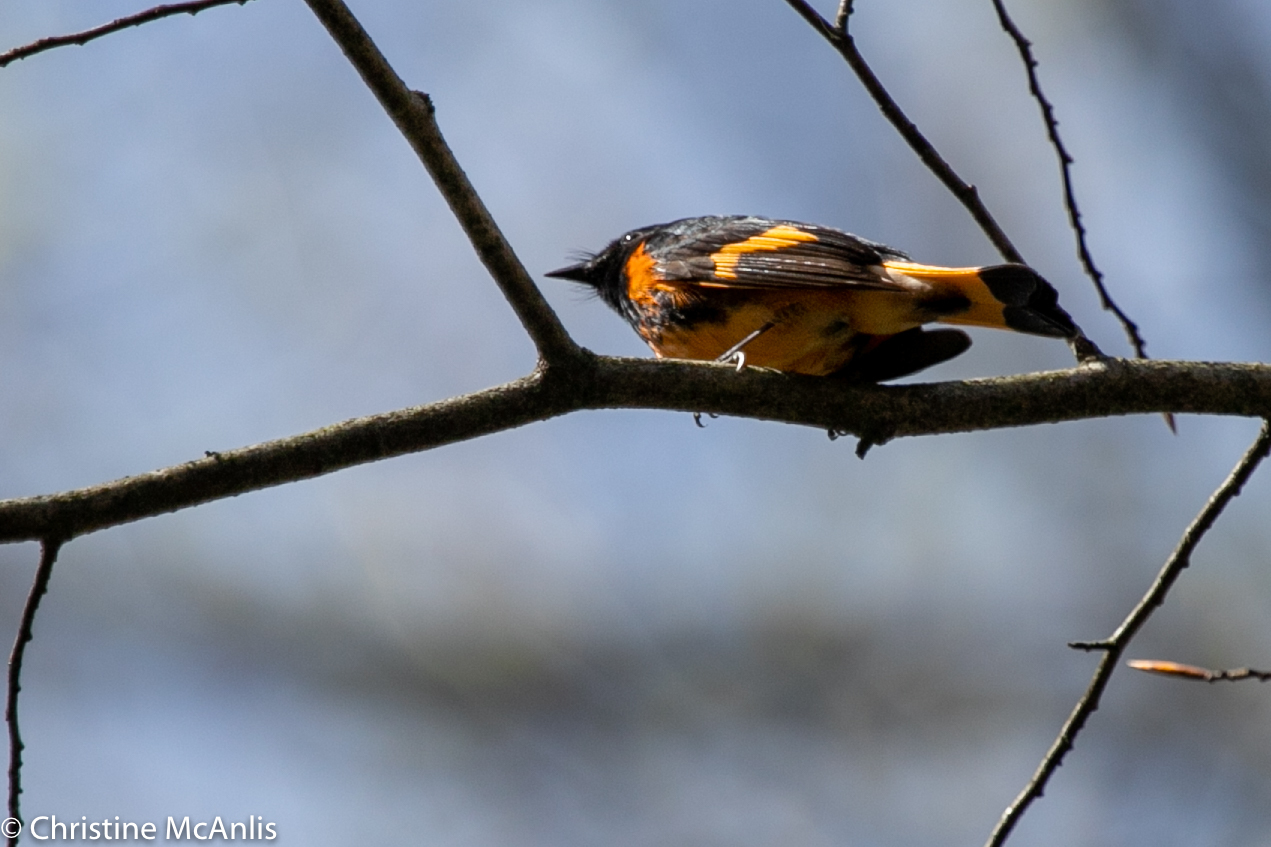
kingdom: Animalia
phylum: Chordata
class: Aves
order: Passeriformes
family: Parulidae
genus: Setophaga
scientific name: Setophaga ruticilla
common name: American redstart
